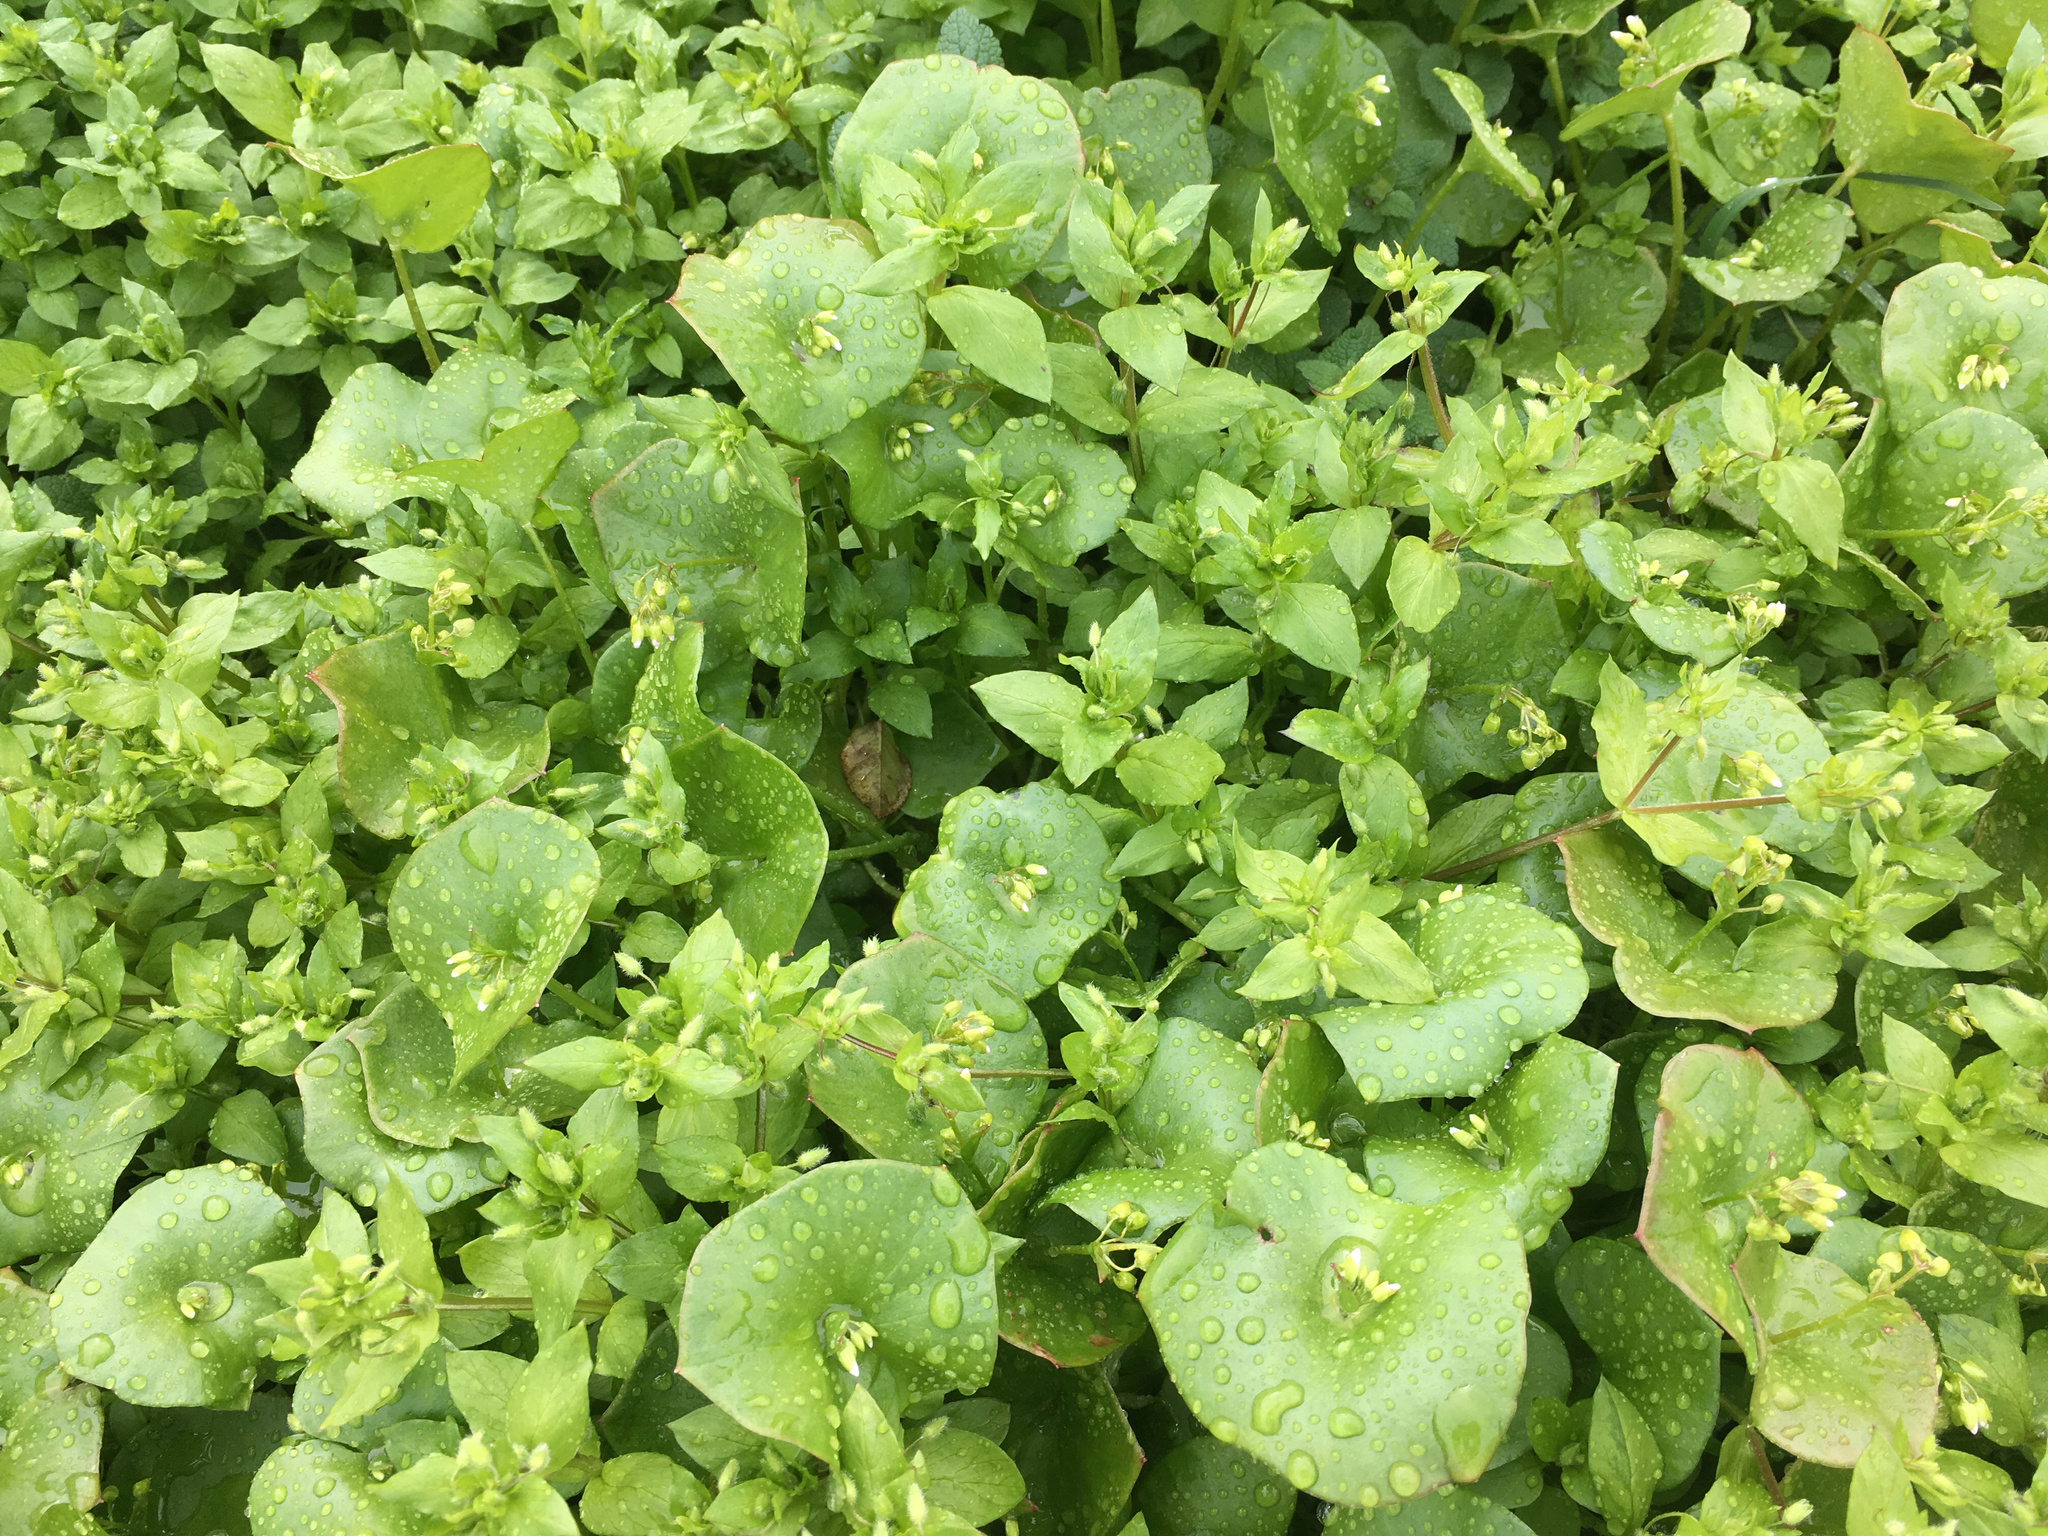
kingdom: Plantae
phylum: Tracheophyta
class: Magnoliopsida
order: Caryophyllales
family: Montiaceae
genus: Claytonia
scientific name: Claytonia perfoliata
